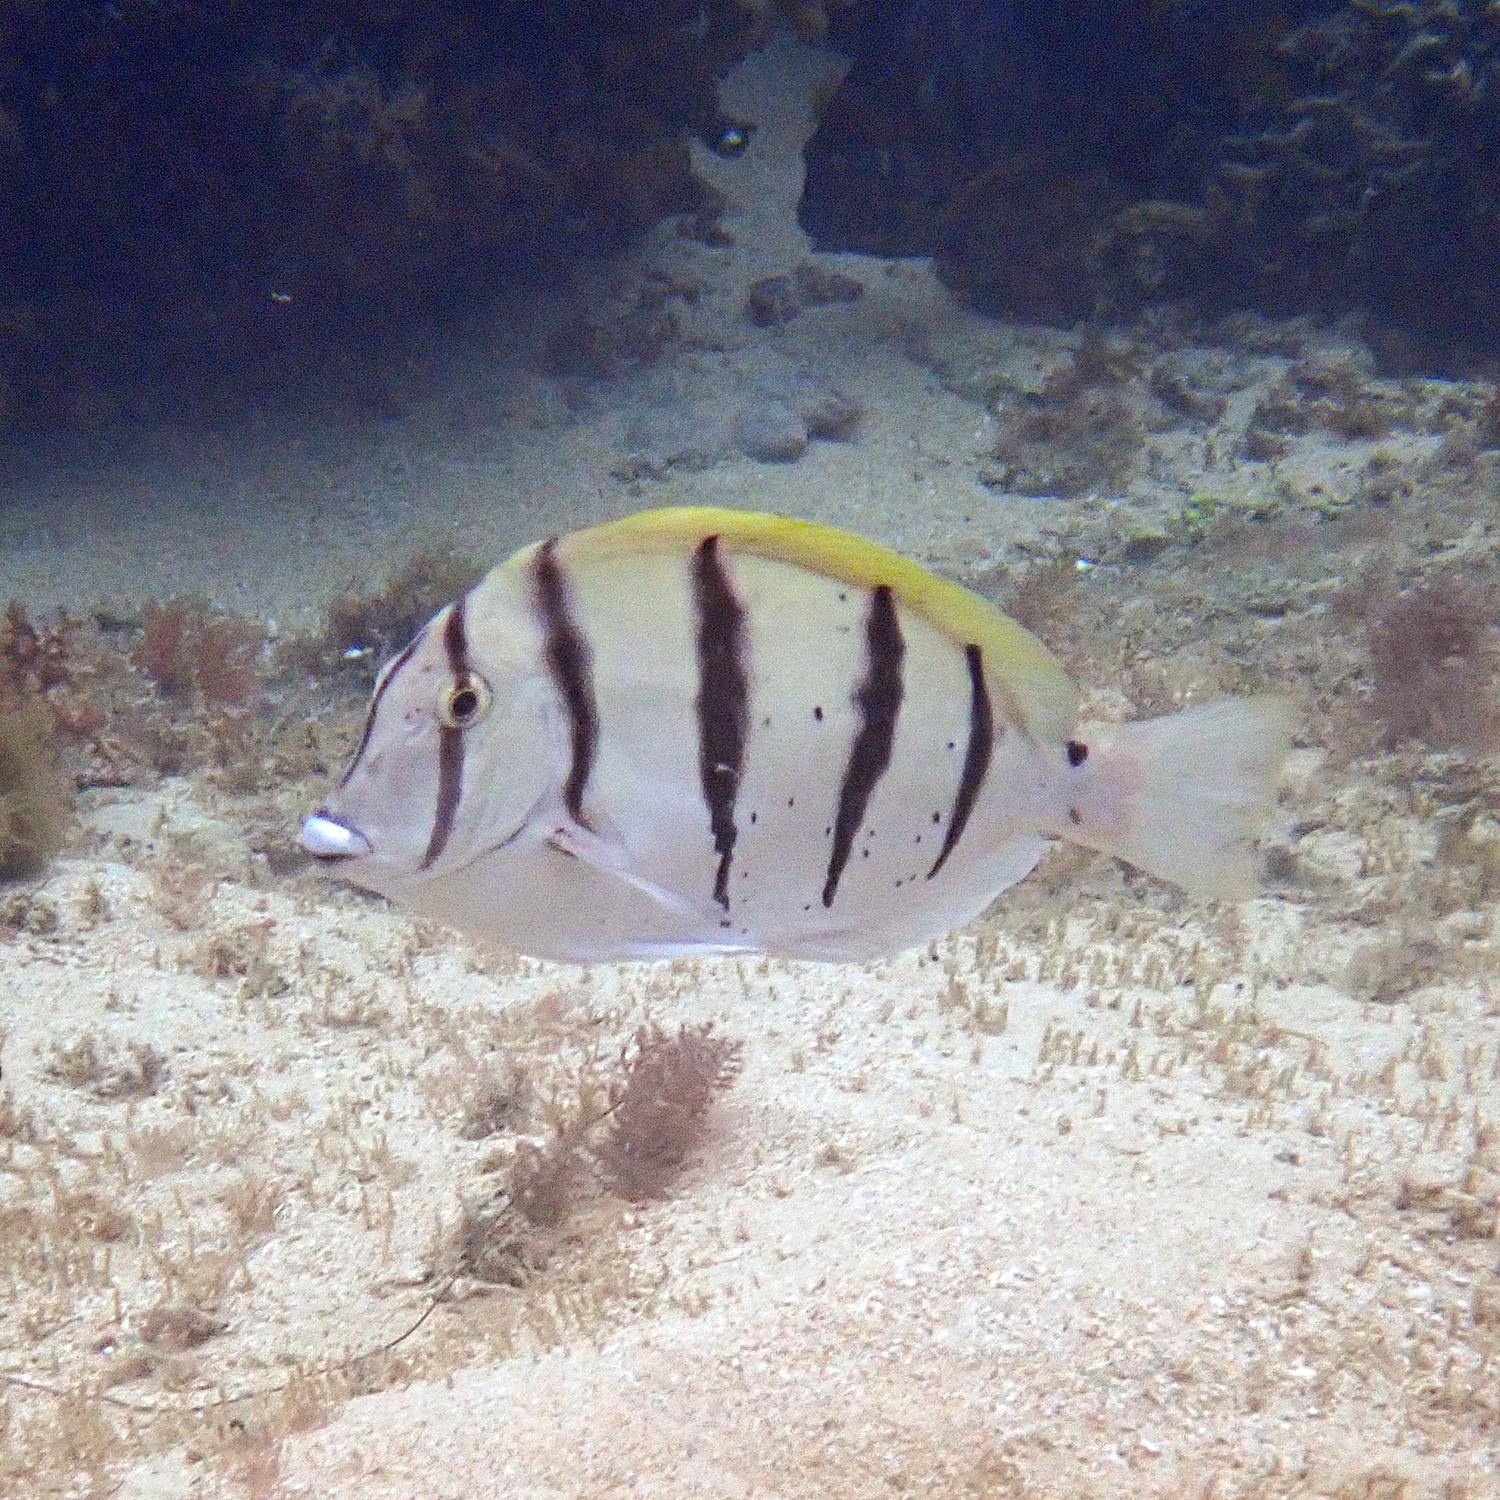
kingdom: Animalia
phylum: Chordata
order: Perciformes
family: Acanthuridae
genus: Acanthurus
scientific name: Acanthurus triostegus
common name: Convict surgeonfish
